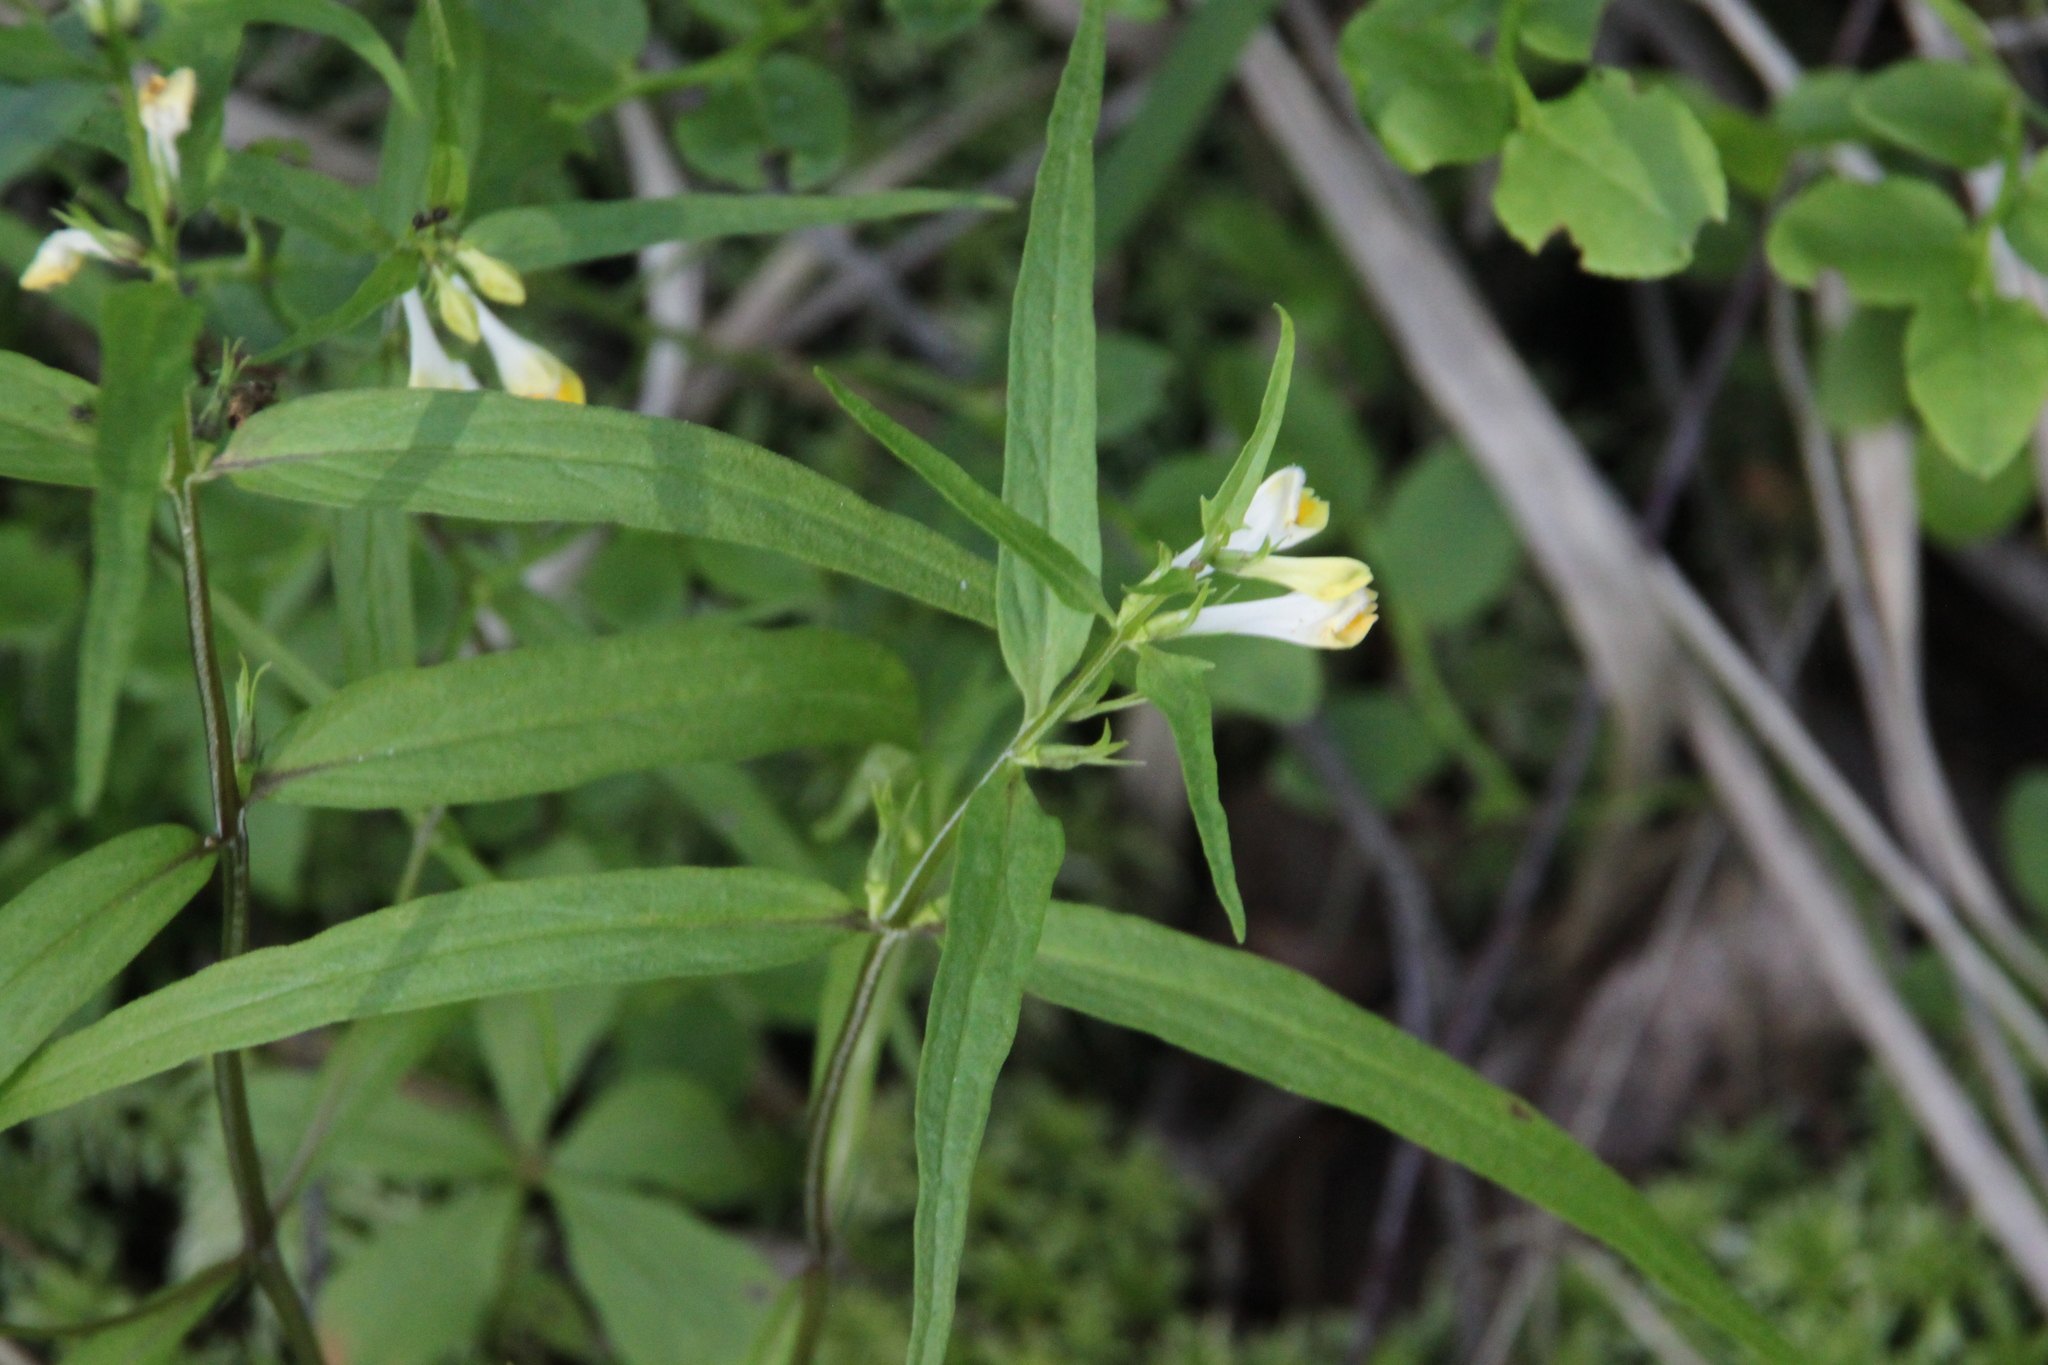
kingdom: Plantae
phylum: Tracheophyta
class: Magnoliopsida
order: Lamiales
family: Orobanchaceae
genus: Melampyrum
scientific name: Melampyrum pratense
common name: Common cow-wheat
